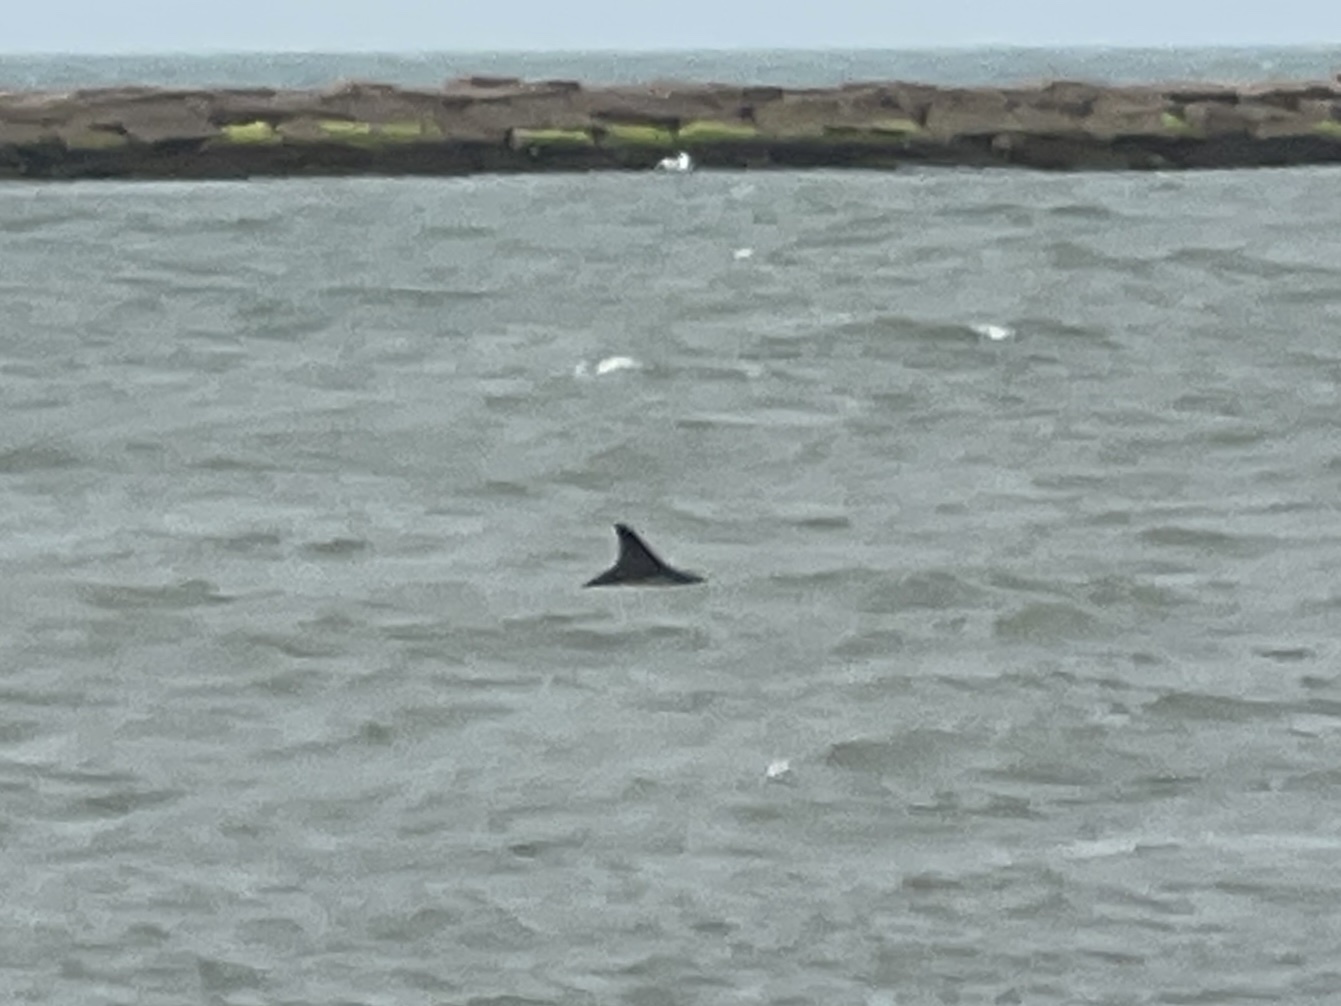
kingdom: Animalia
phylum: Chordata
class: Mammalia
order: Cetacea
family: Delphinidae
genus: Tursiops
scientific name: Tursiops truncatus
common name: Bottlenose dolphin
